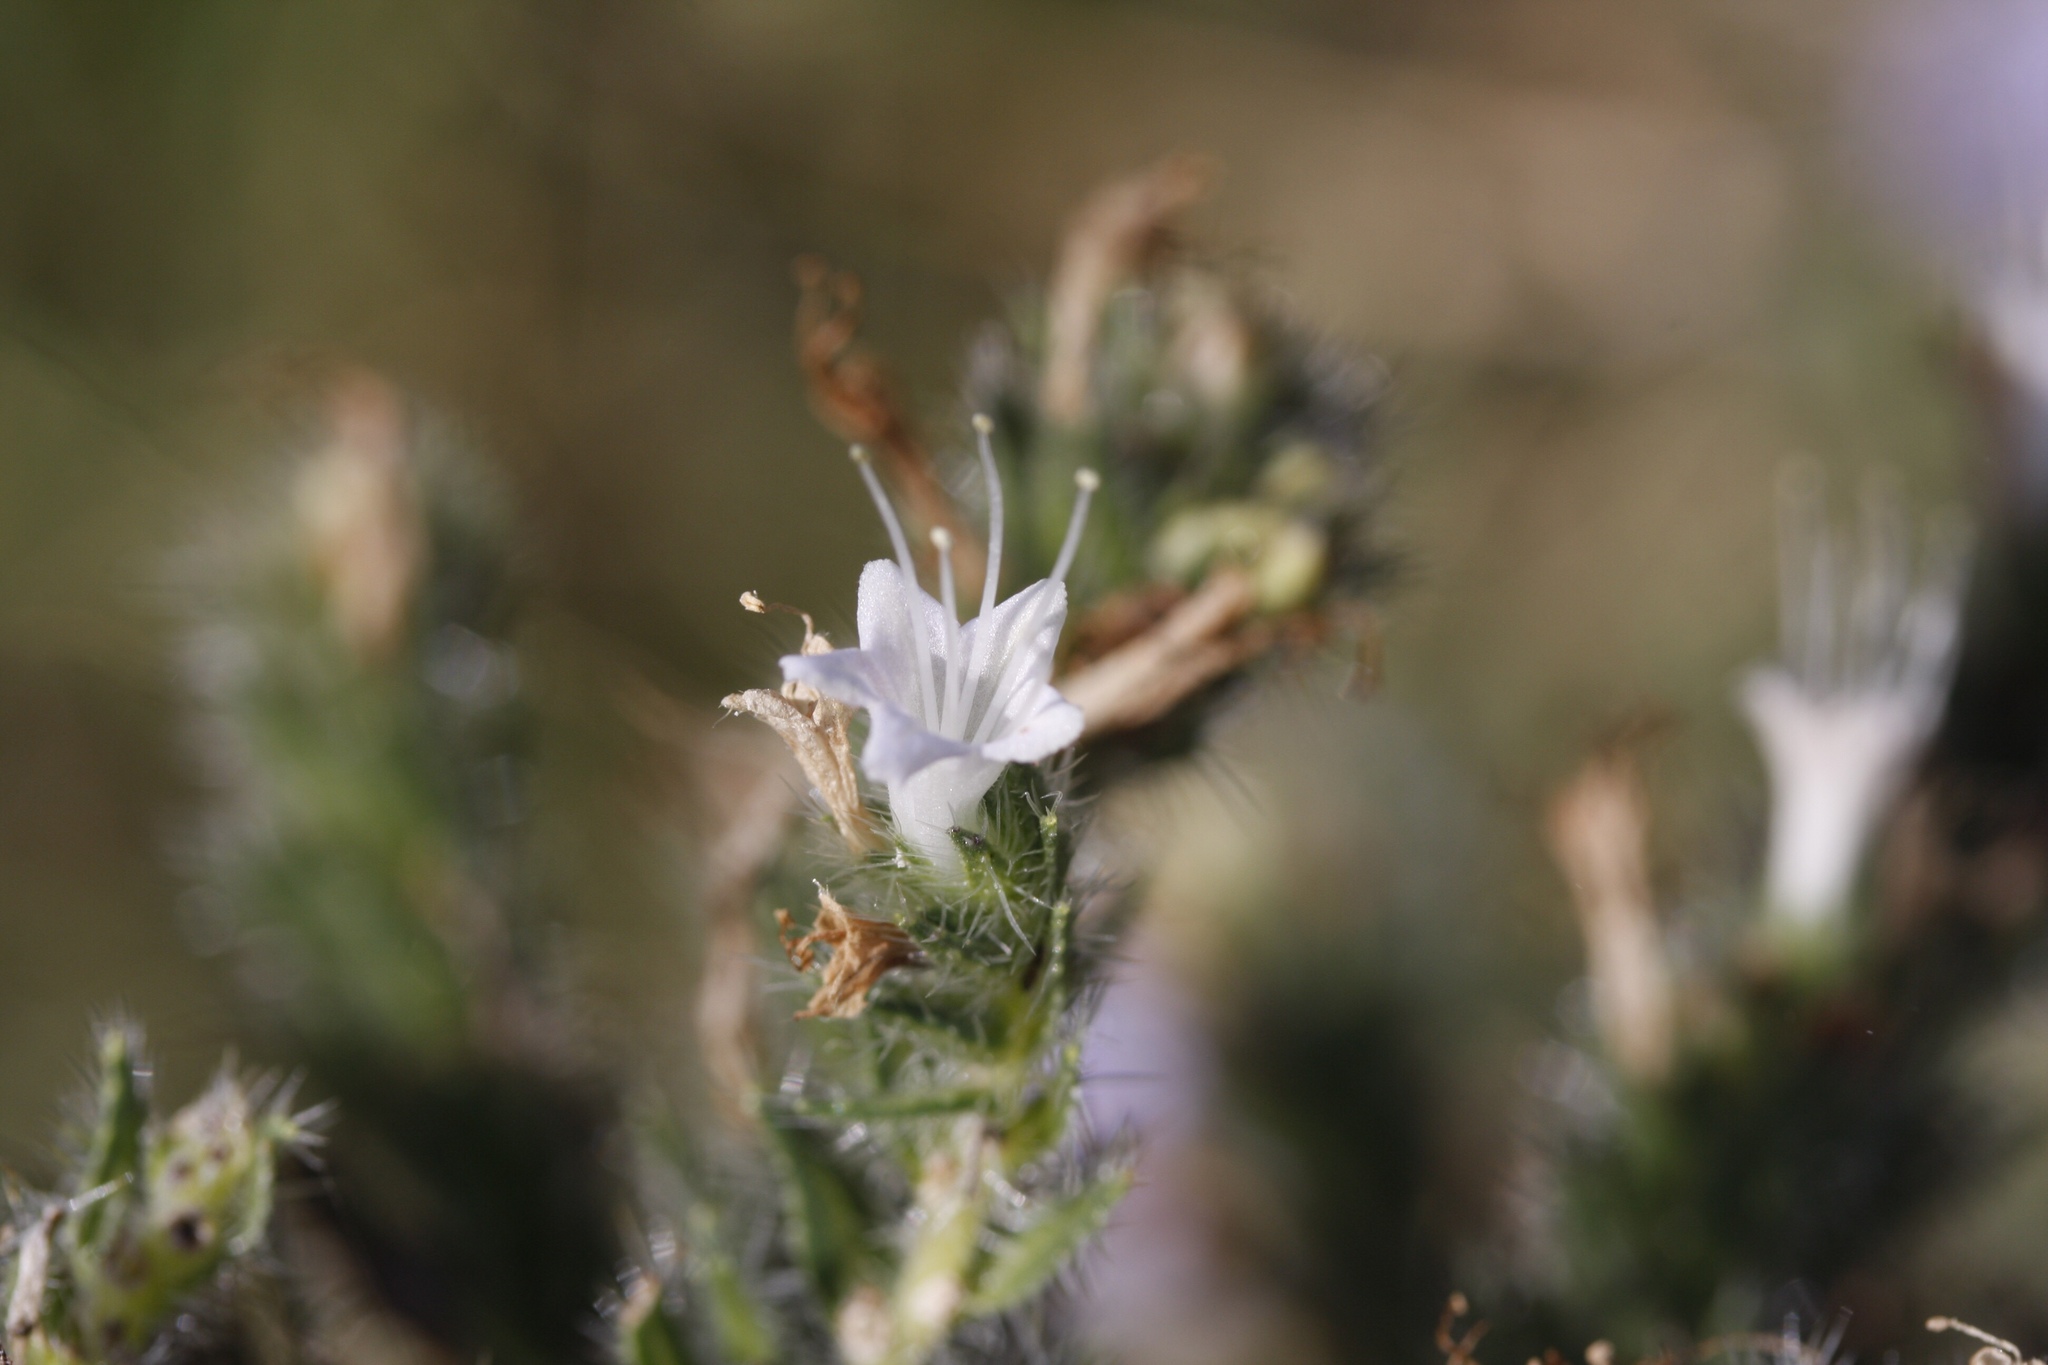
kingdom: Plantae
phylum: Tracheophyta
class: Magnoliopsida
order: Boraginales
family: Boraginaceae
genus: Echium
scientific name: Echium italicum
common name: Italian viper's bugloss
